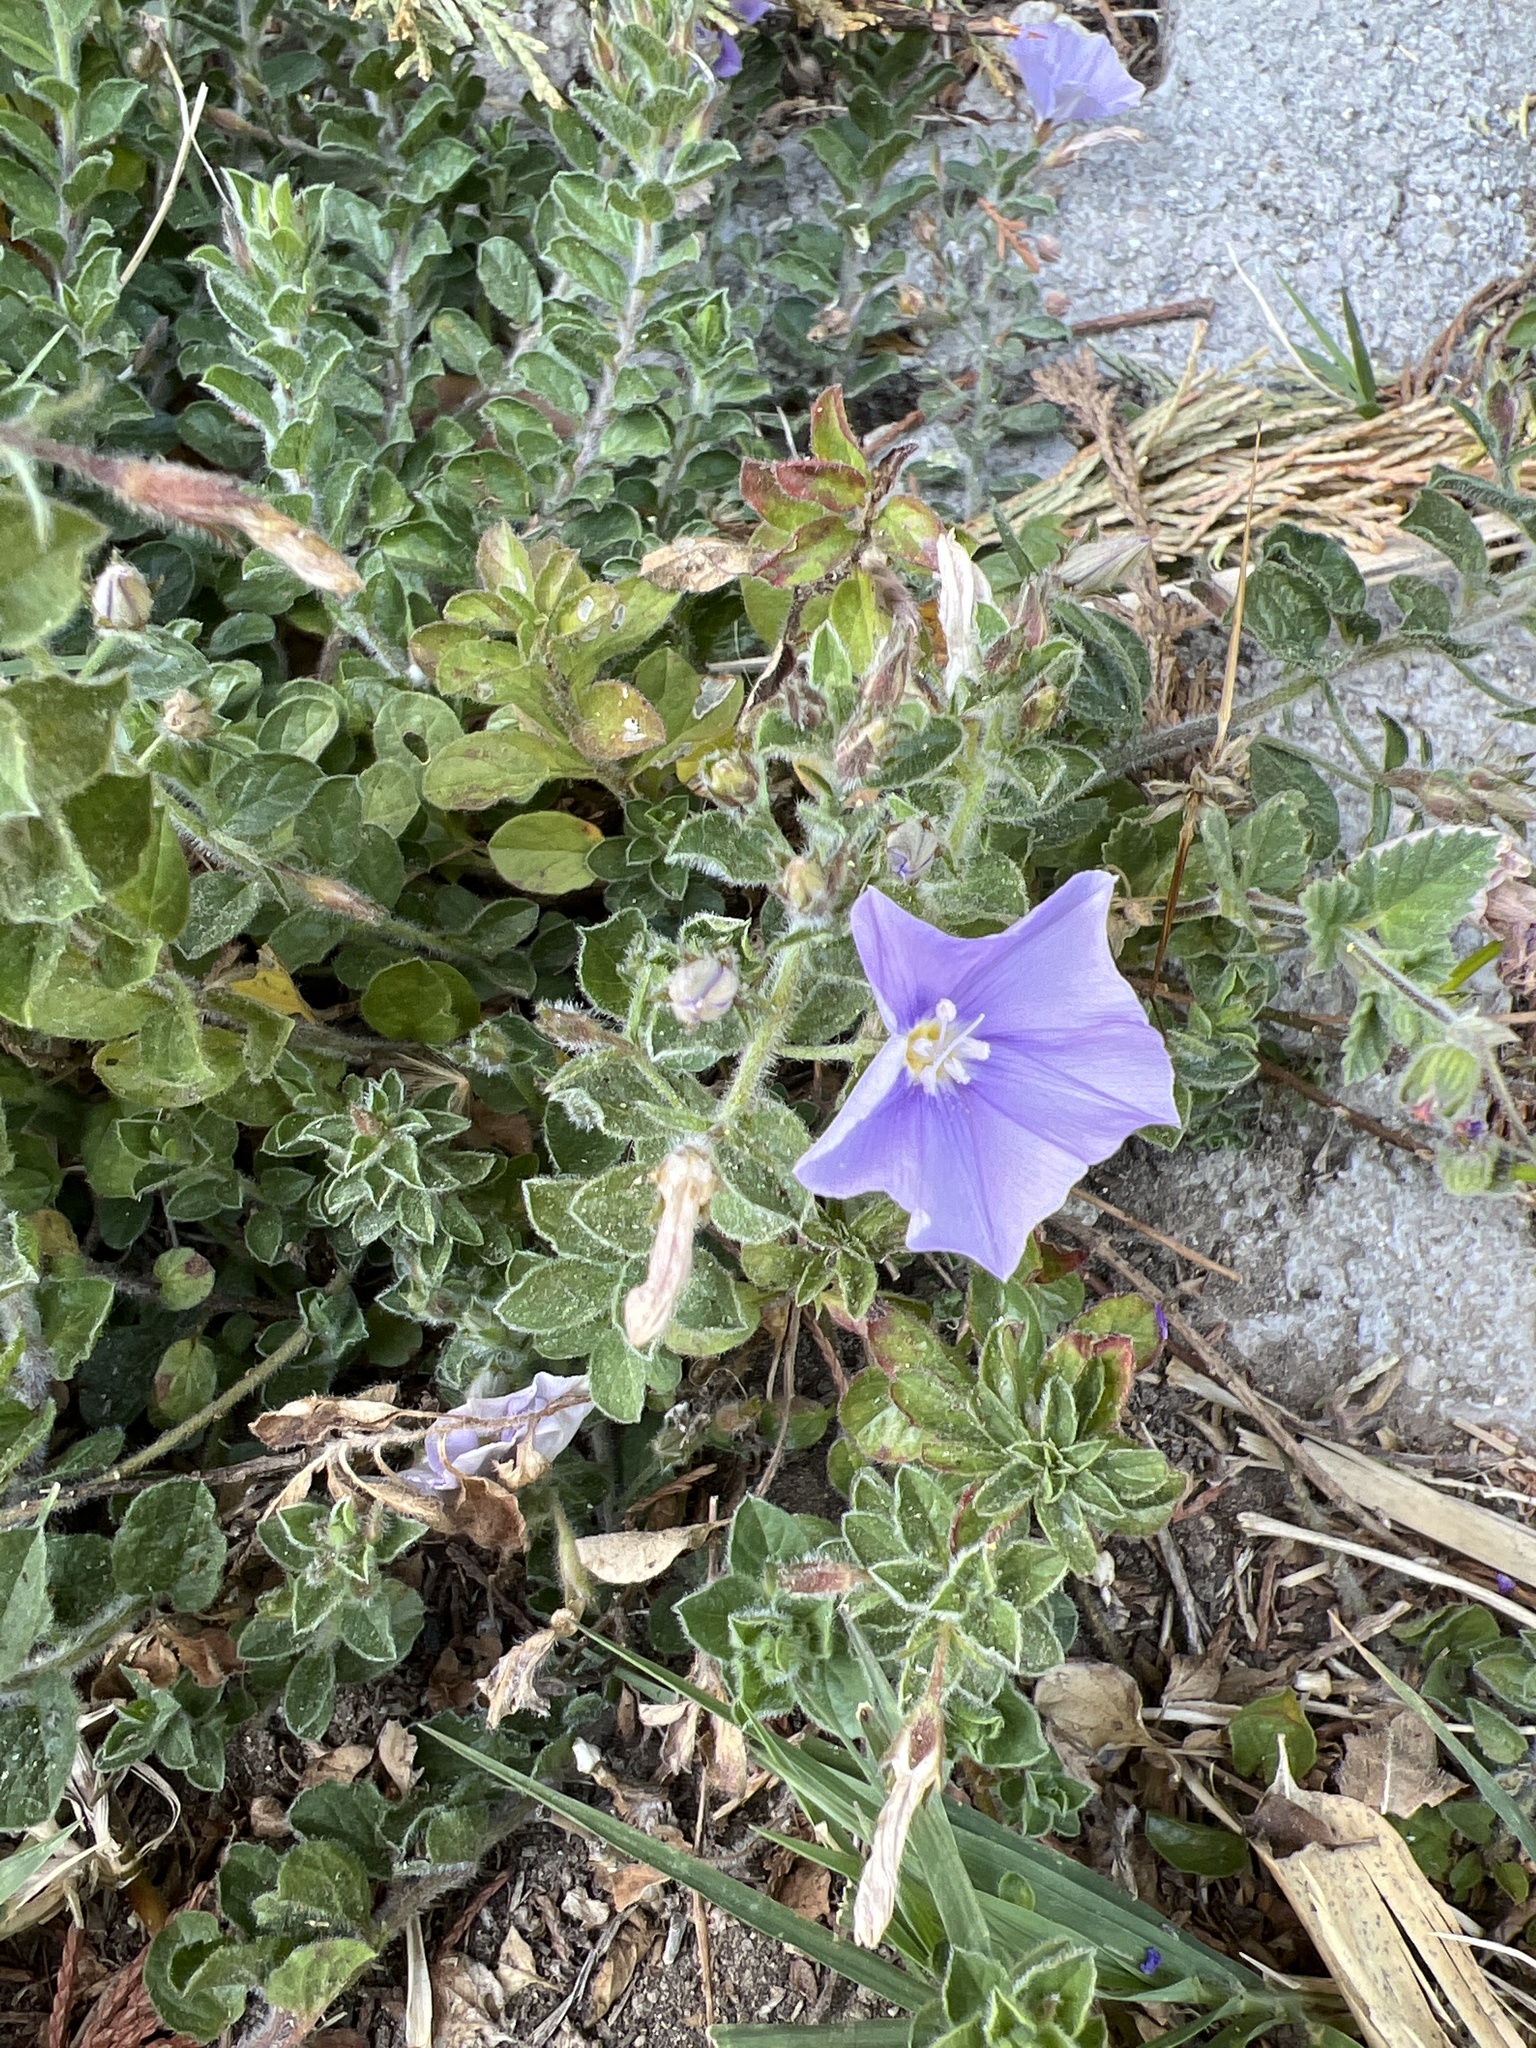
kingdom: Plantae
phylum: Tracheophyta
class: Magnoliopsida
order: Solanales
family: Convolvulaceae
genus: Convolvulus
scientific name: Convolvulus sabatius
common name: Ground blue-convolvulus
